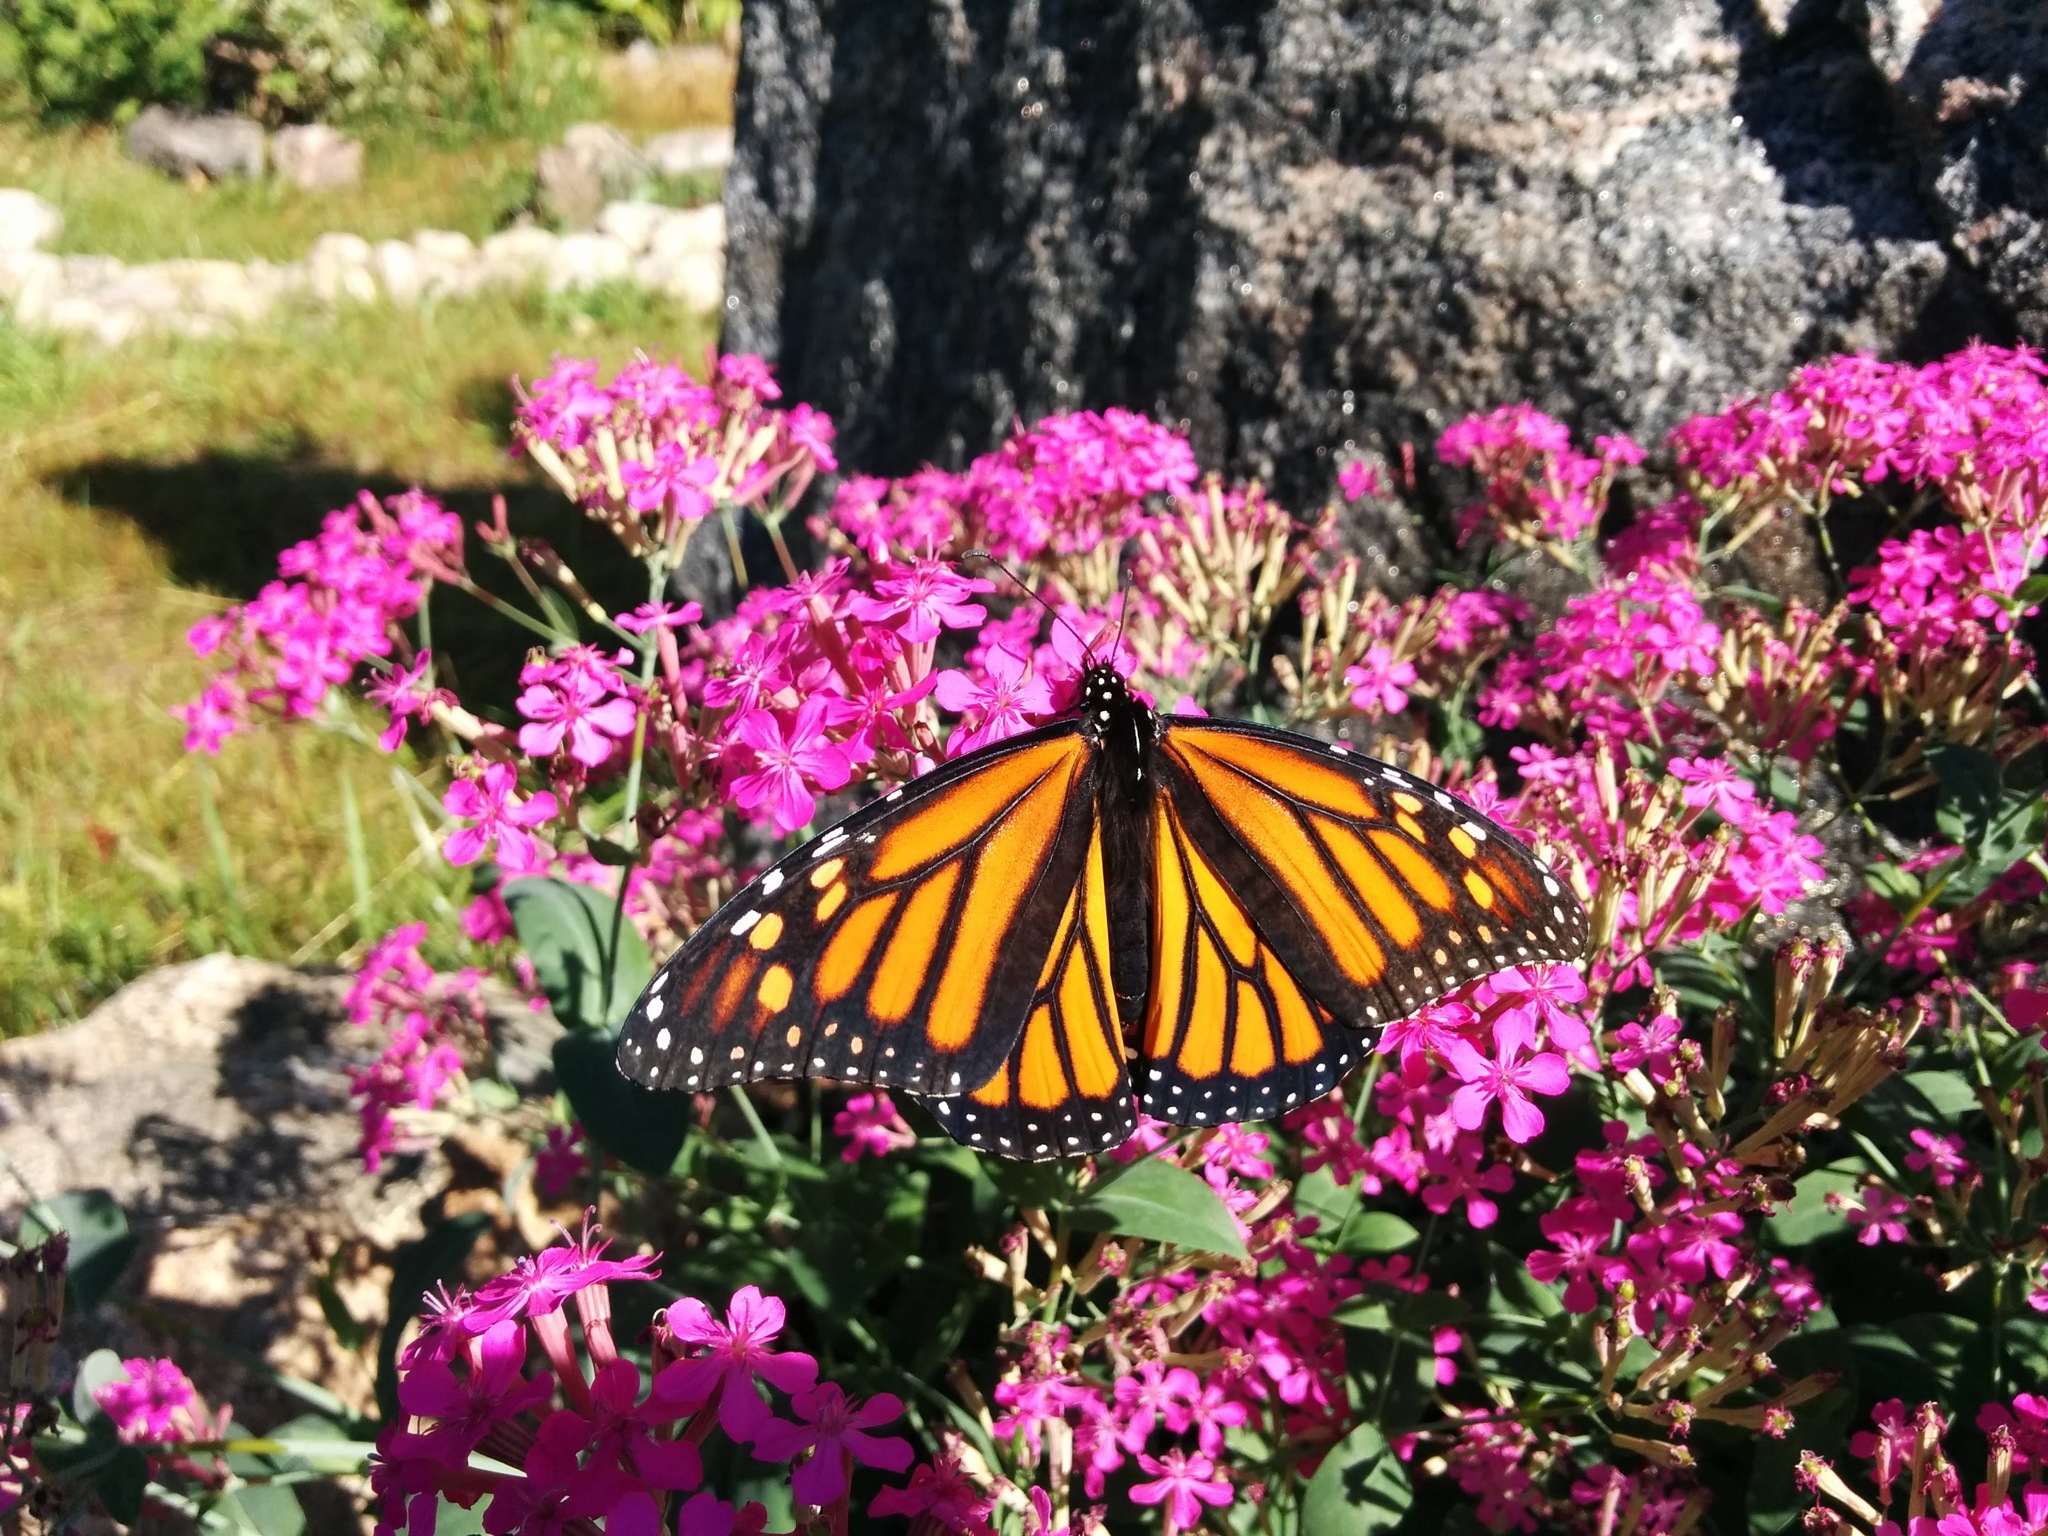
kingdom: Animalia
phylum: Arthropoda
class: Insecta
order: Lepidoptera
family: Nymphalidae
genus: Danaus
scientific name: Danaus plexippus
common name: Monarch
